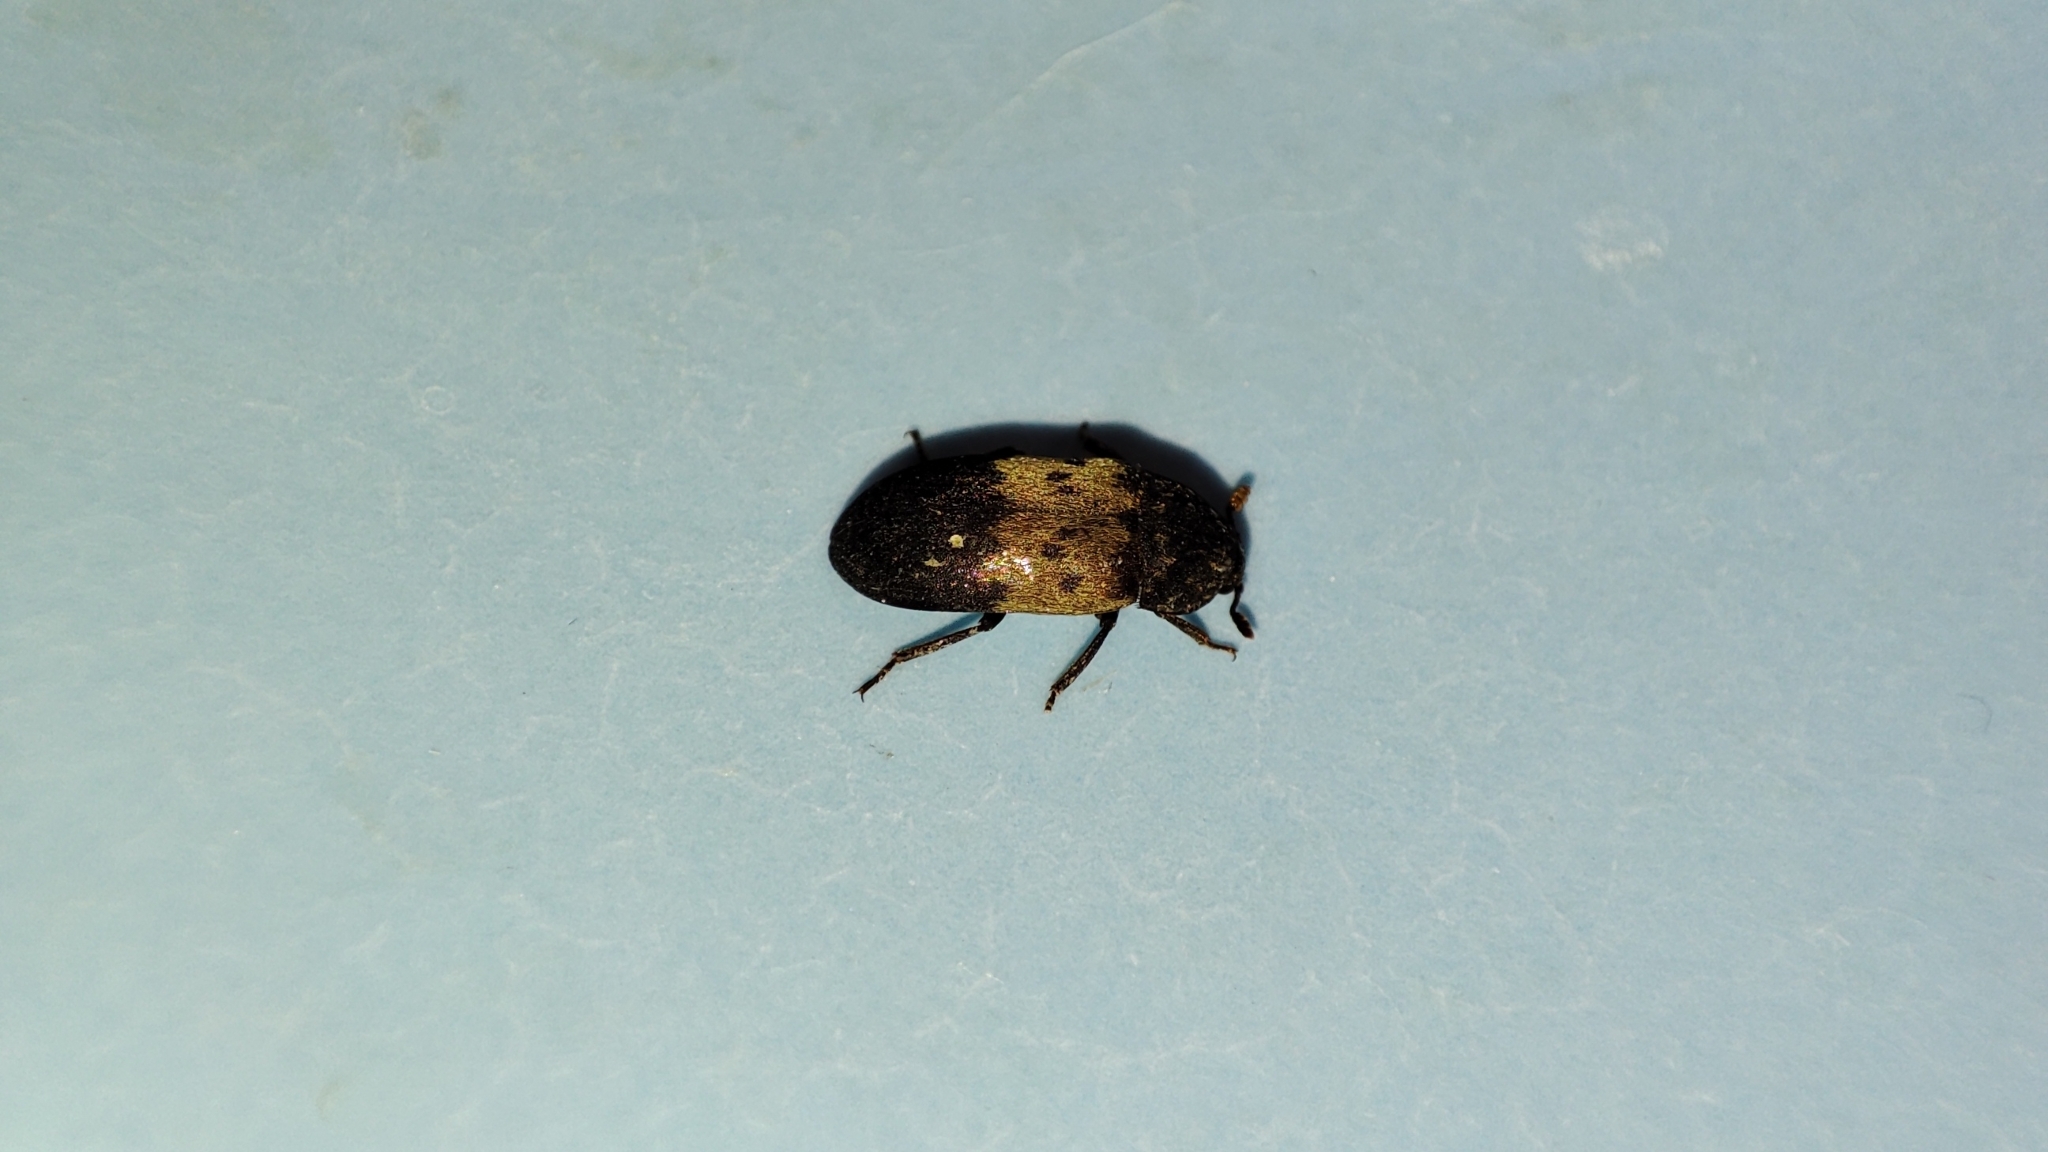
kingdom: Animalia
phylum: Arthropoda
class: Insecta
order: Coleoptera
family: Dermestidae
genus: Dermestes
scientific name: Dermestes lardarius
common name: Larder beetle
